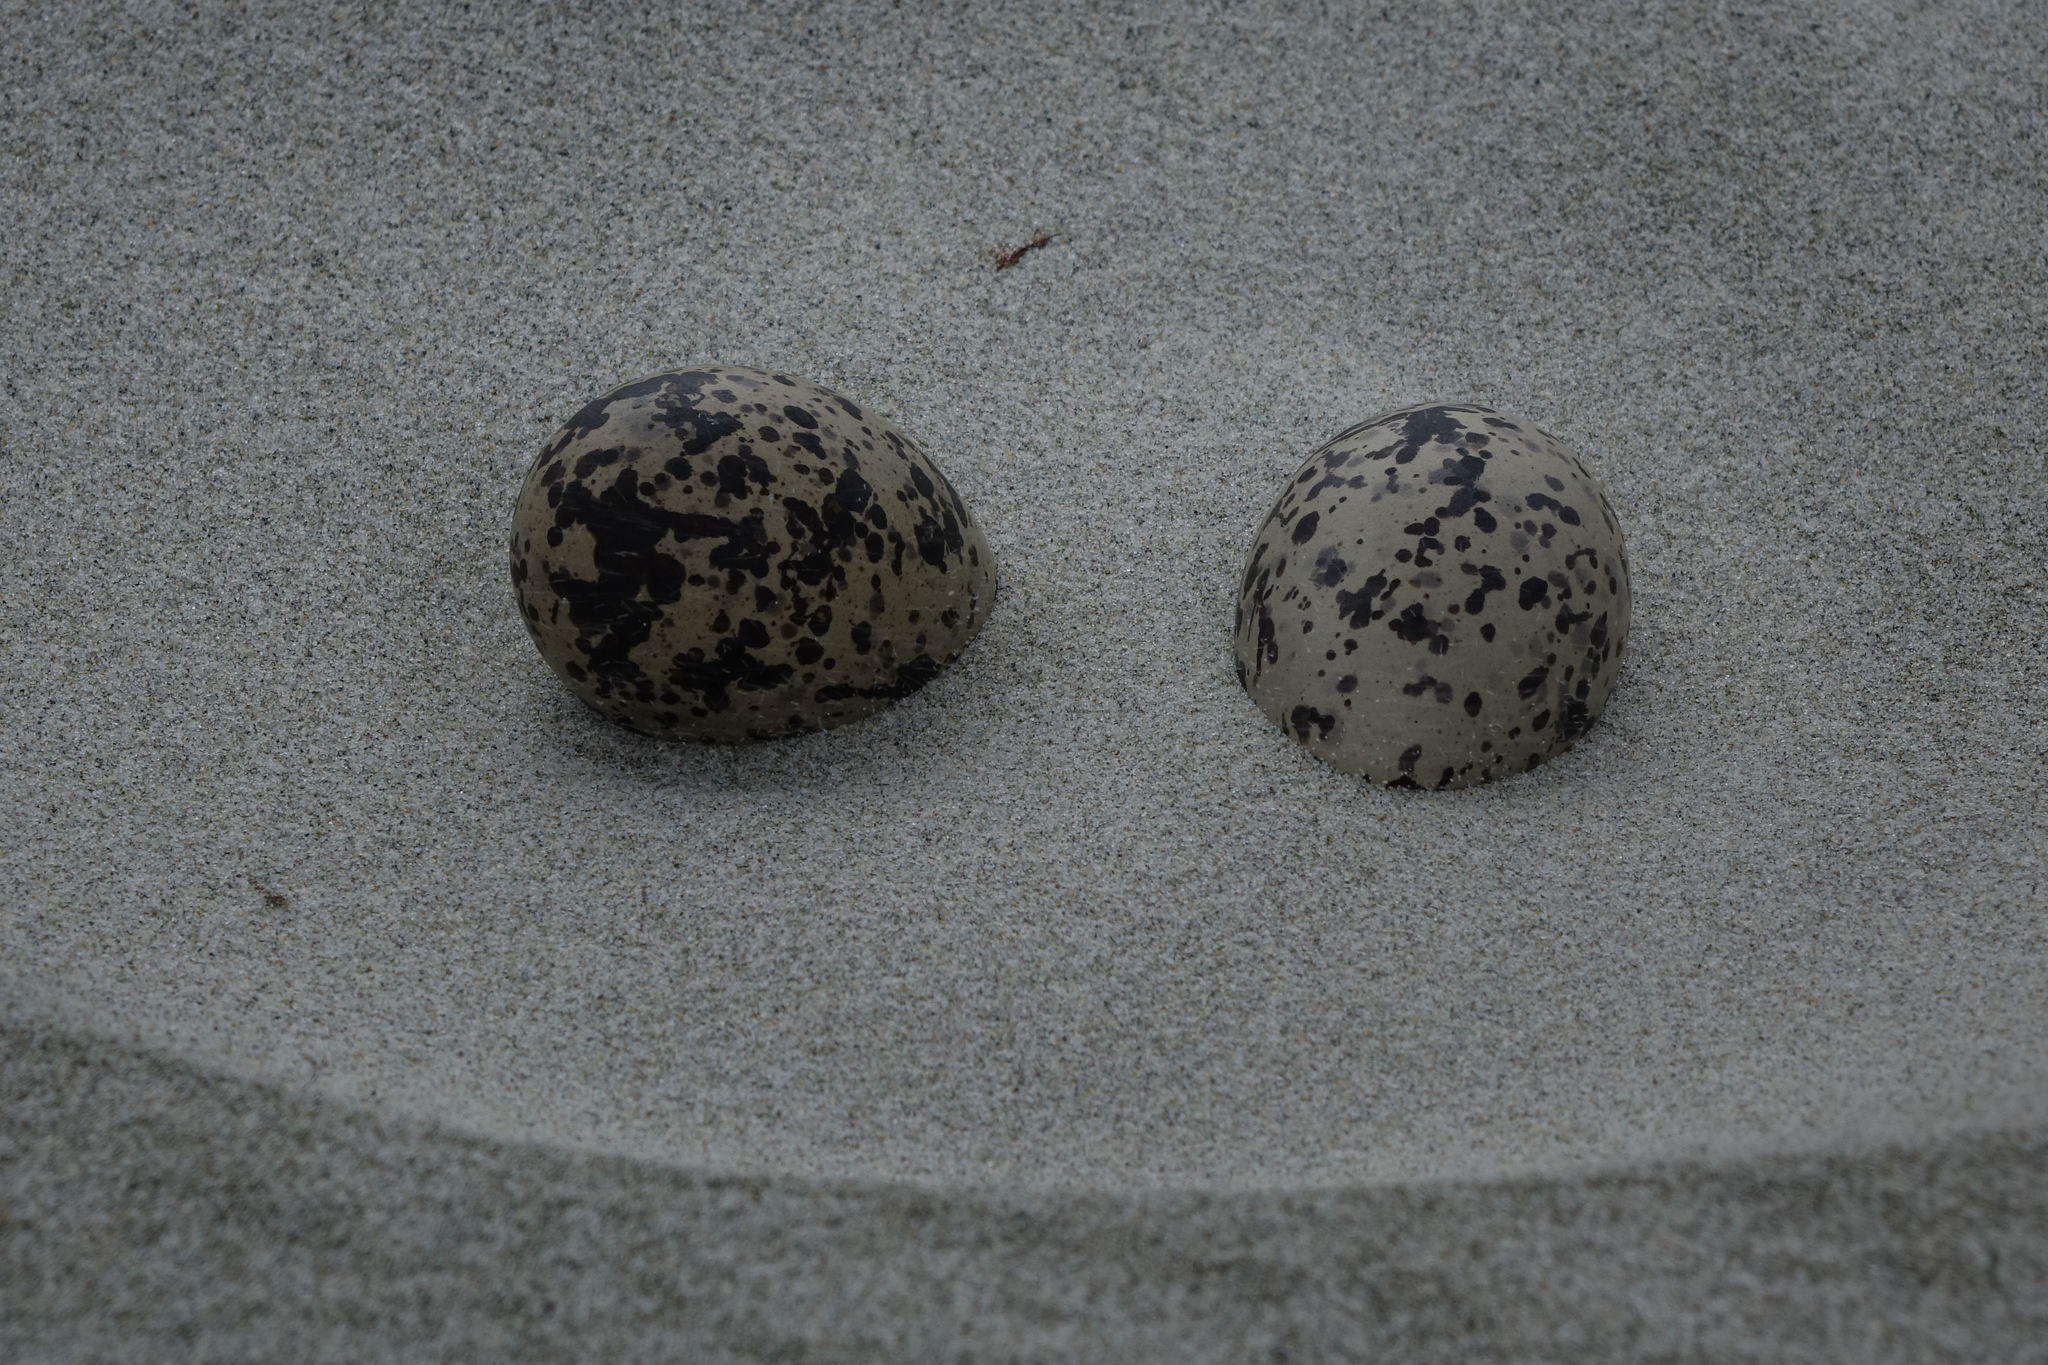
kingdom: Animalia
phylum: Chordata
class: Aves
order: Charadriiformes
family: Haematopodidae
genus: Haematopus
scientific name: Haematopus unicolor
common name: Variable oystercatcher
